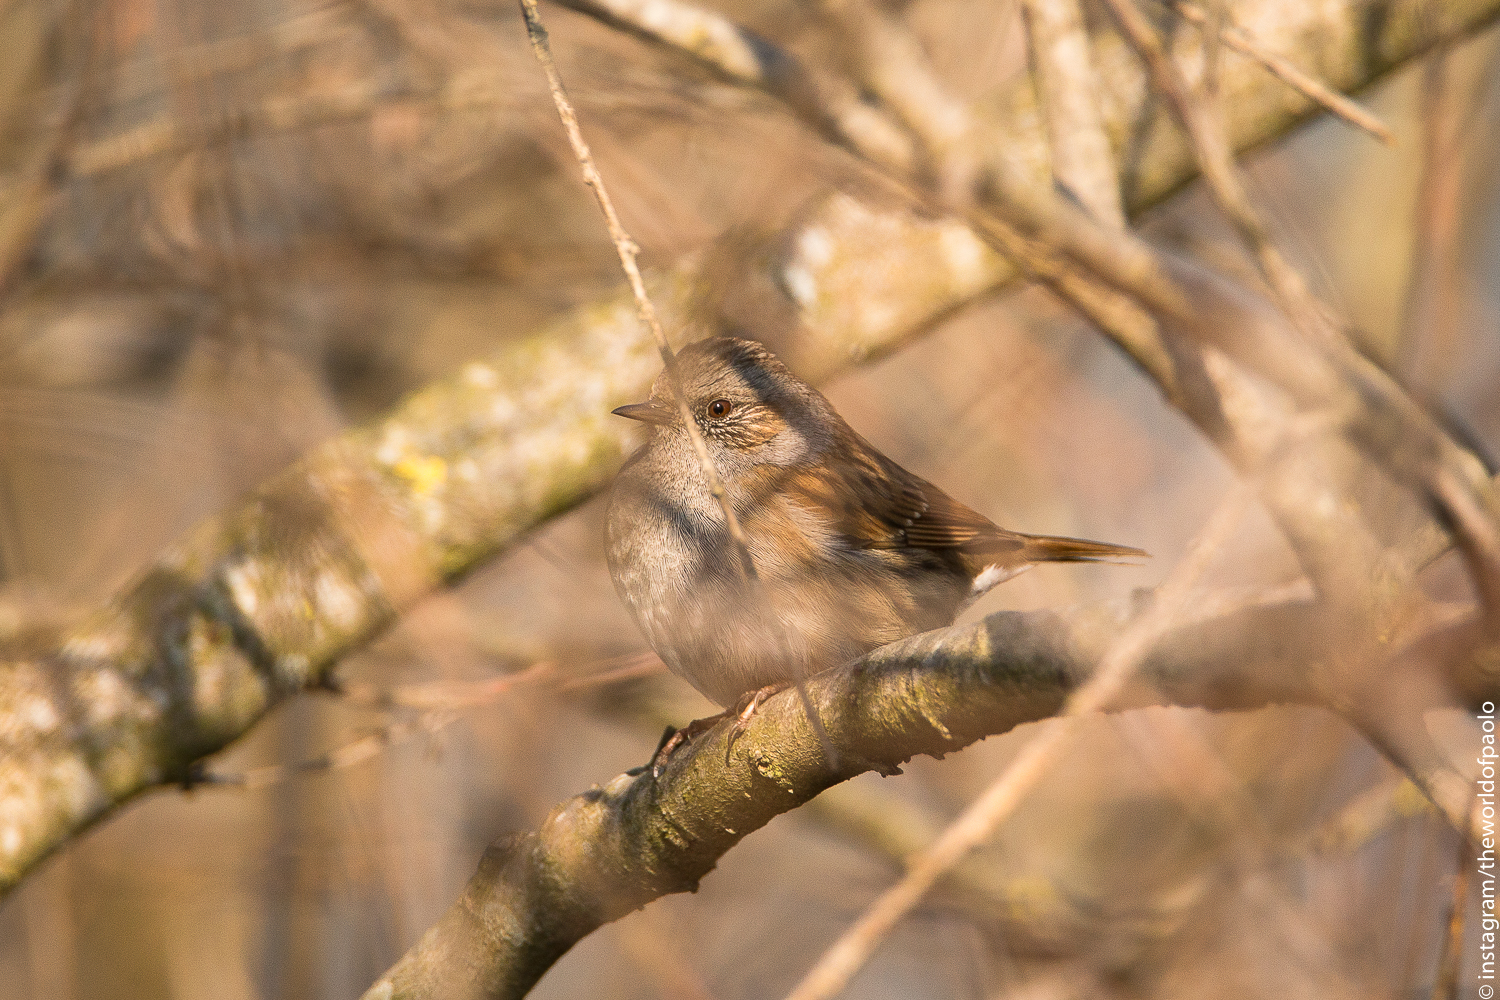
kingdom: Animalia
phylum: Chordata
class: Aves
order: Passeriformes
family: Prunellidae
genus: Prunella
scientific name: Prunella modularis
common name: Dunnock
